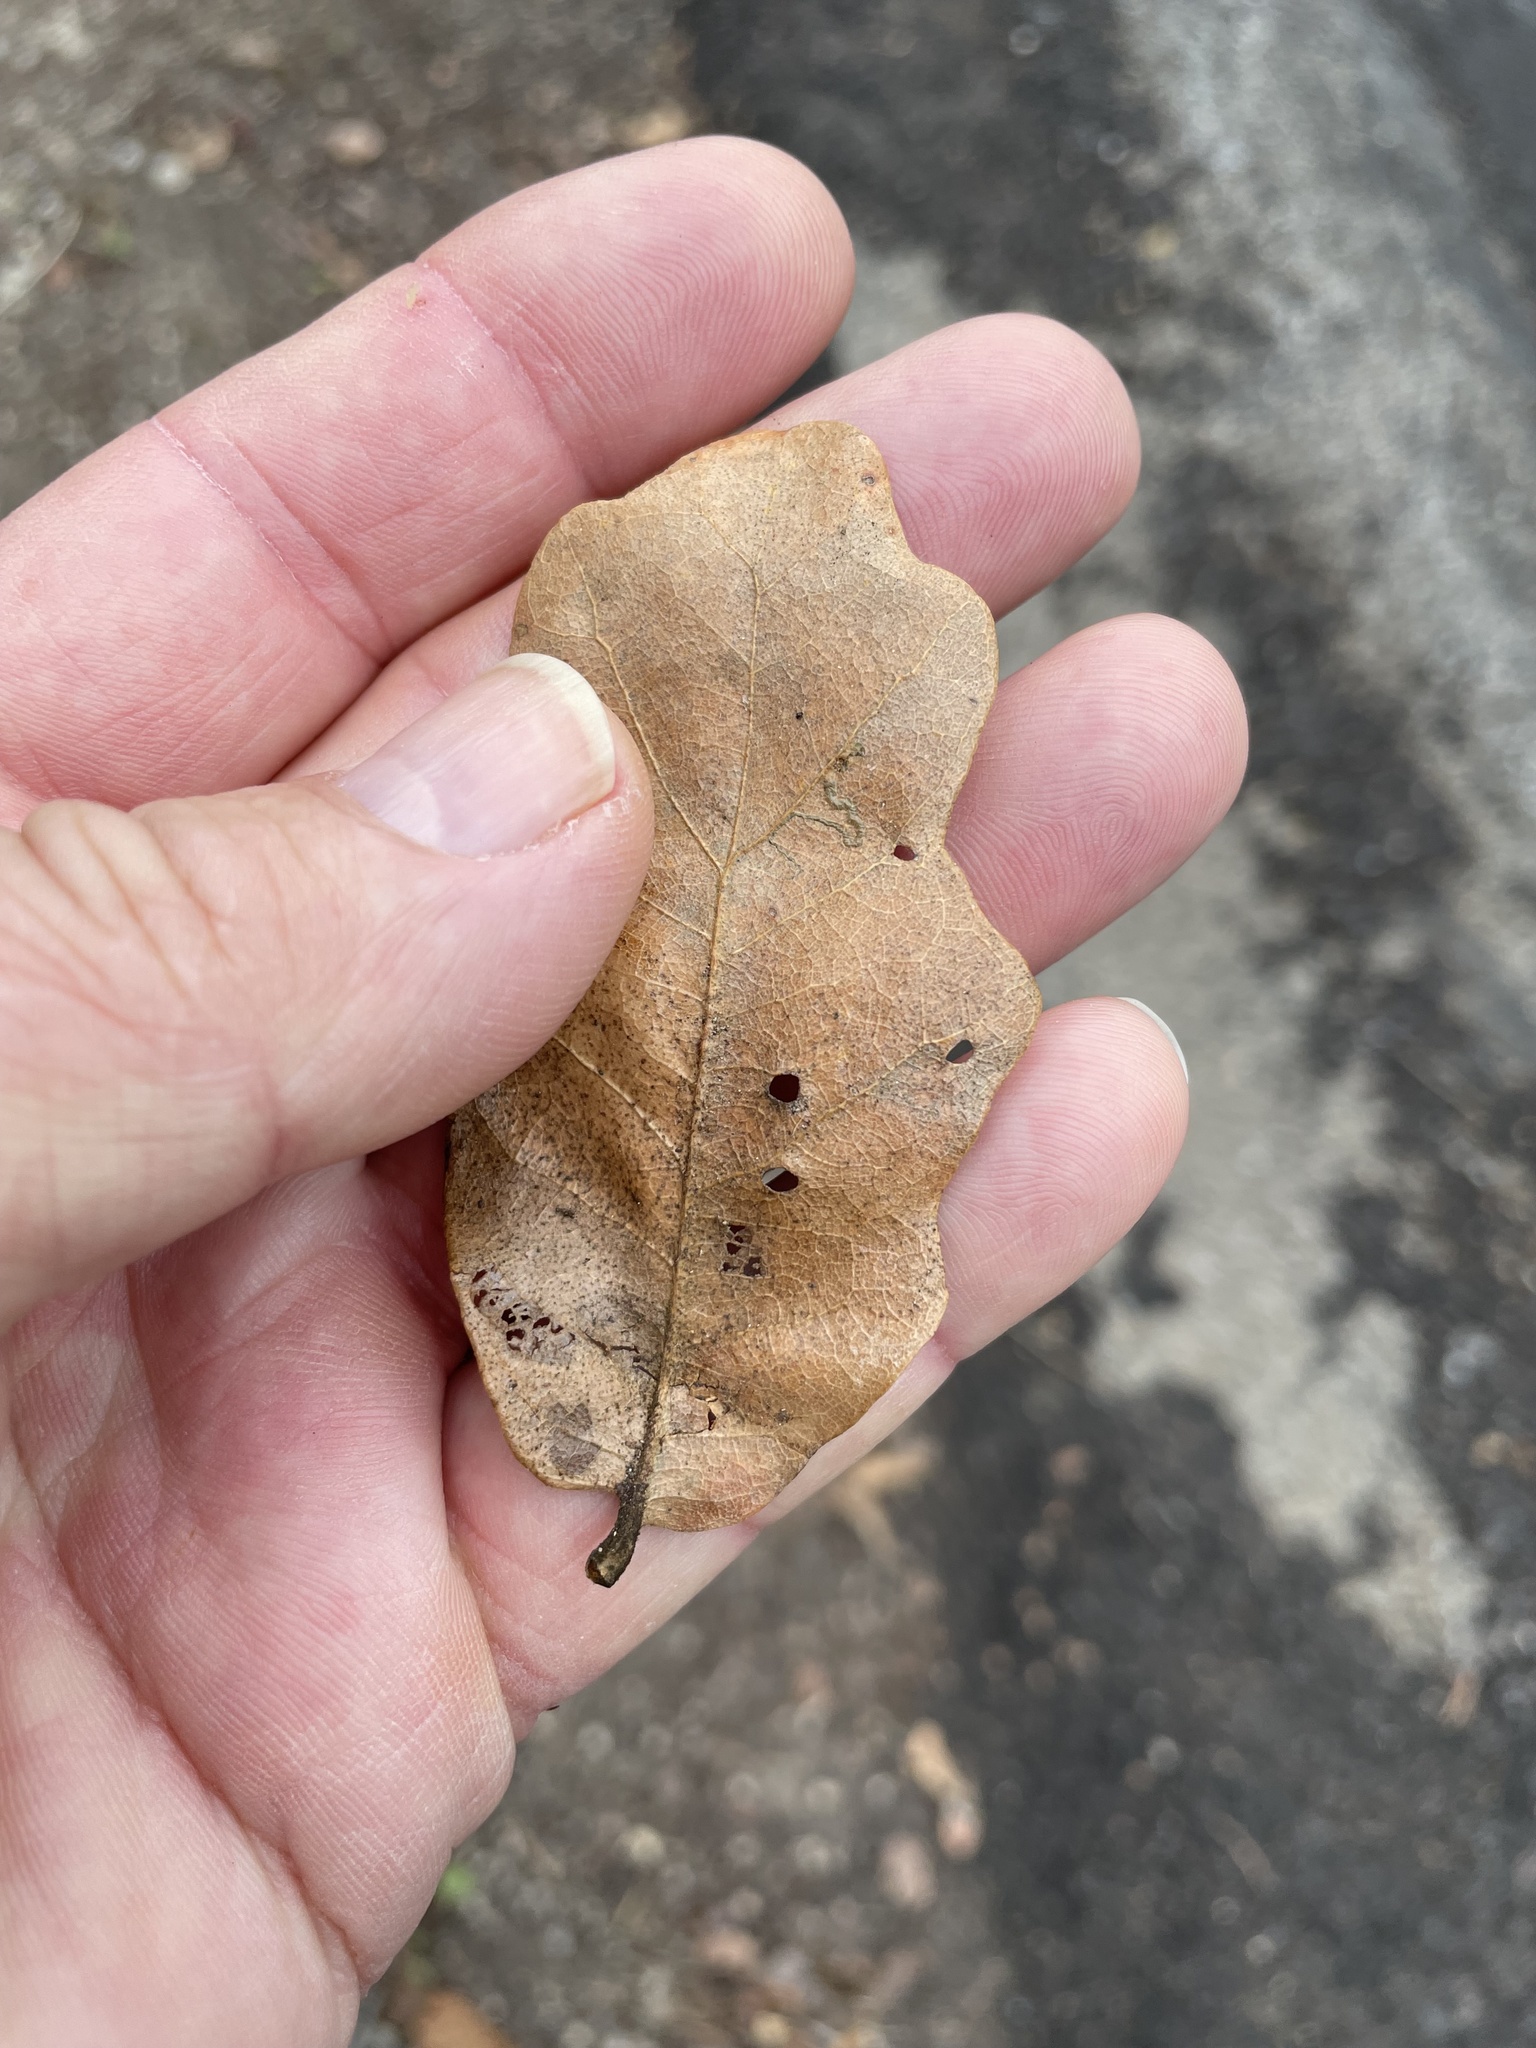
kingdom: Plantae
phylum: Tracheophyta
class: Magnoliopsida
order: Fagales
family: Fagaceae
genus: Quercus
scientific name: Quercus sinuata
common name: Durand oak
